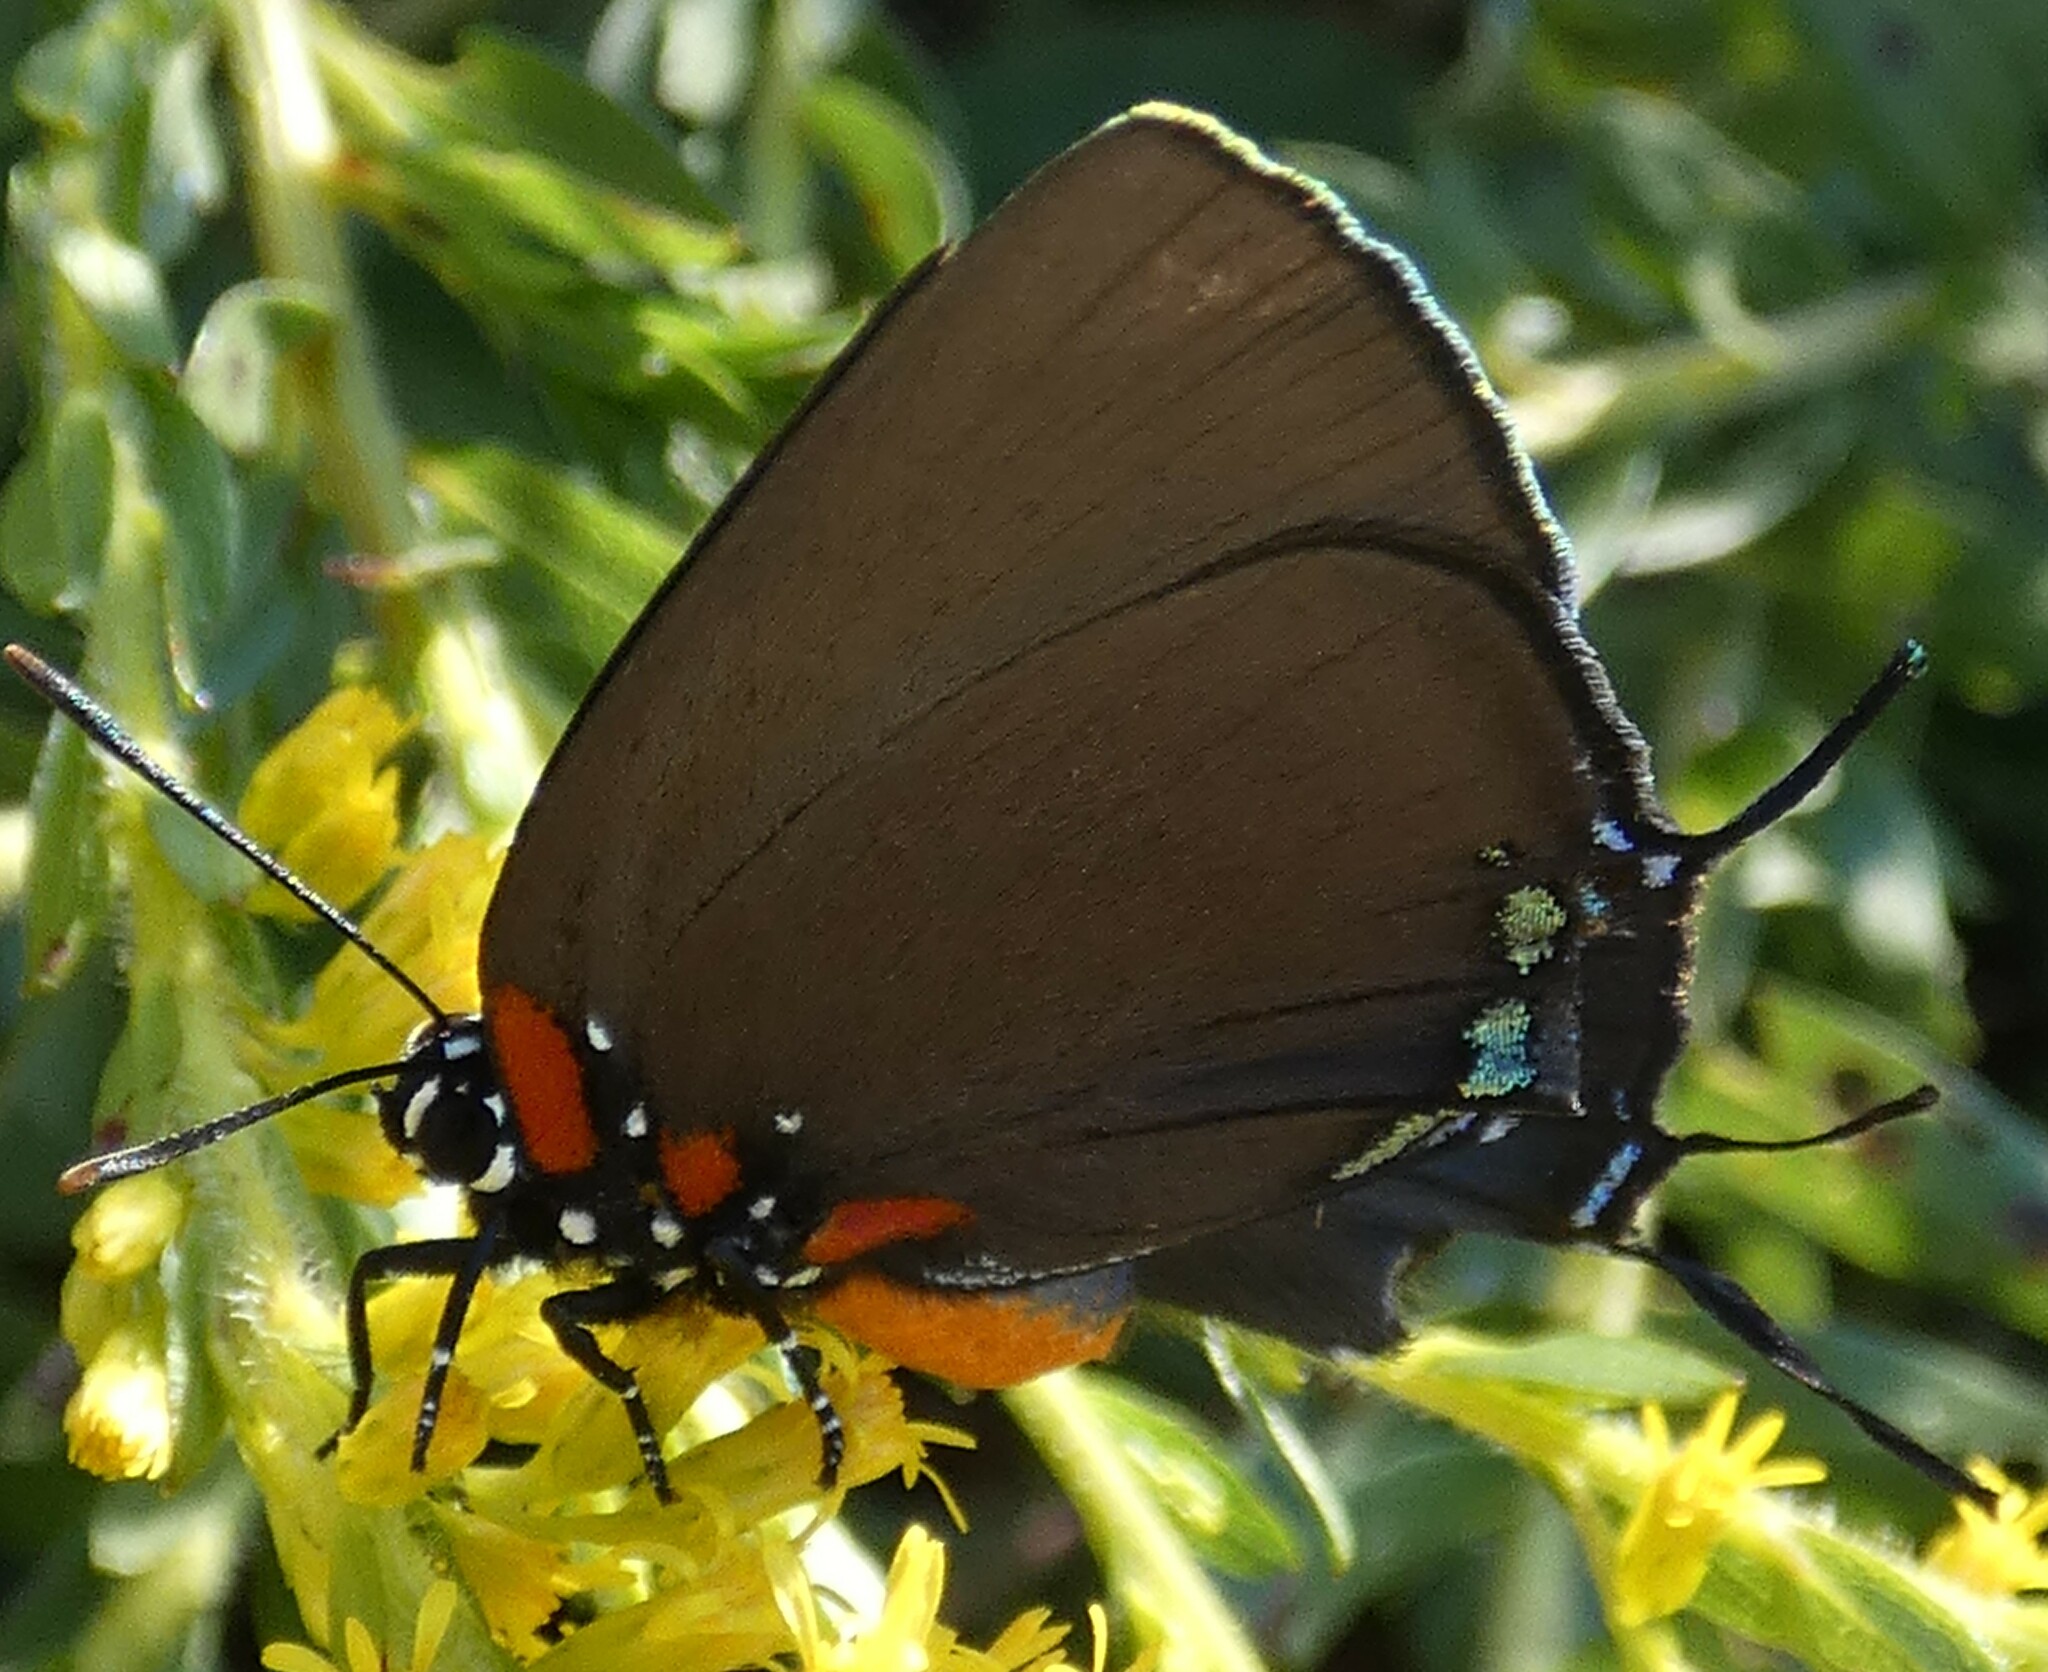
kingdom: Animalia
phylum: Arthropoda
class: Insecta
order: Lepidoptera
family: Lycaenidae
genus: Atlides
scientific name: Atlides halesus
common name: Great purple hairstreak
